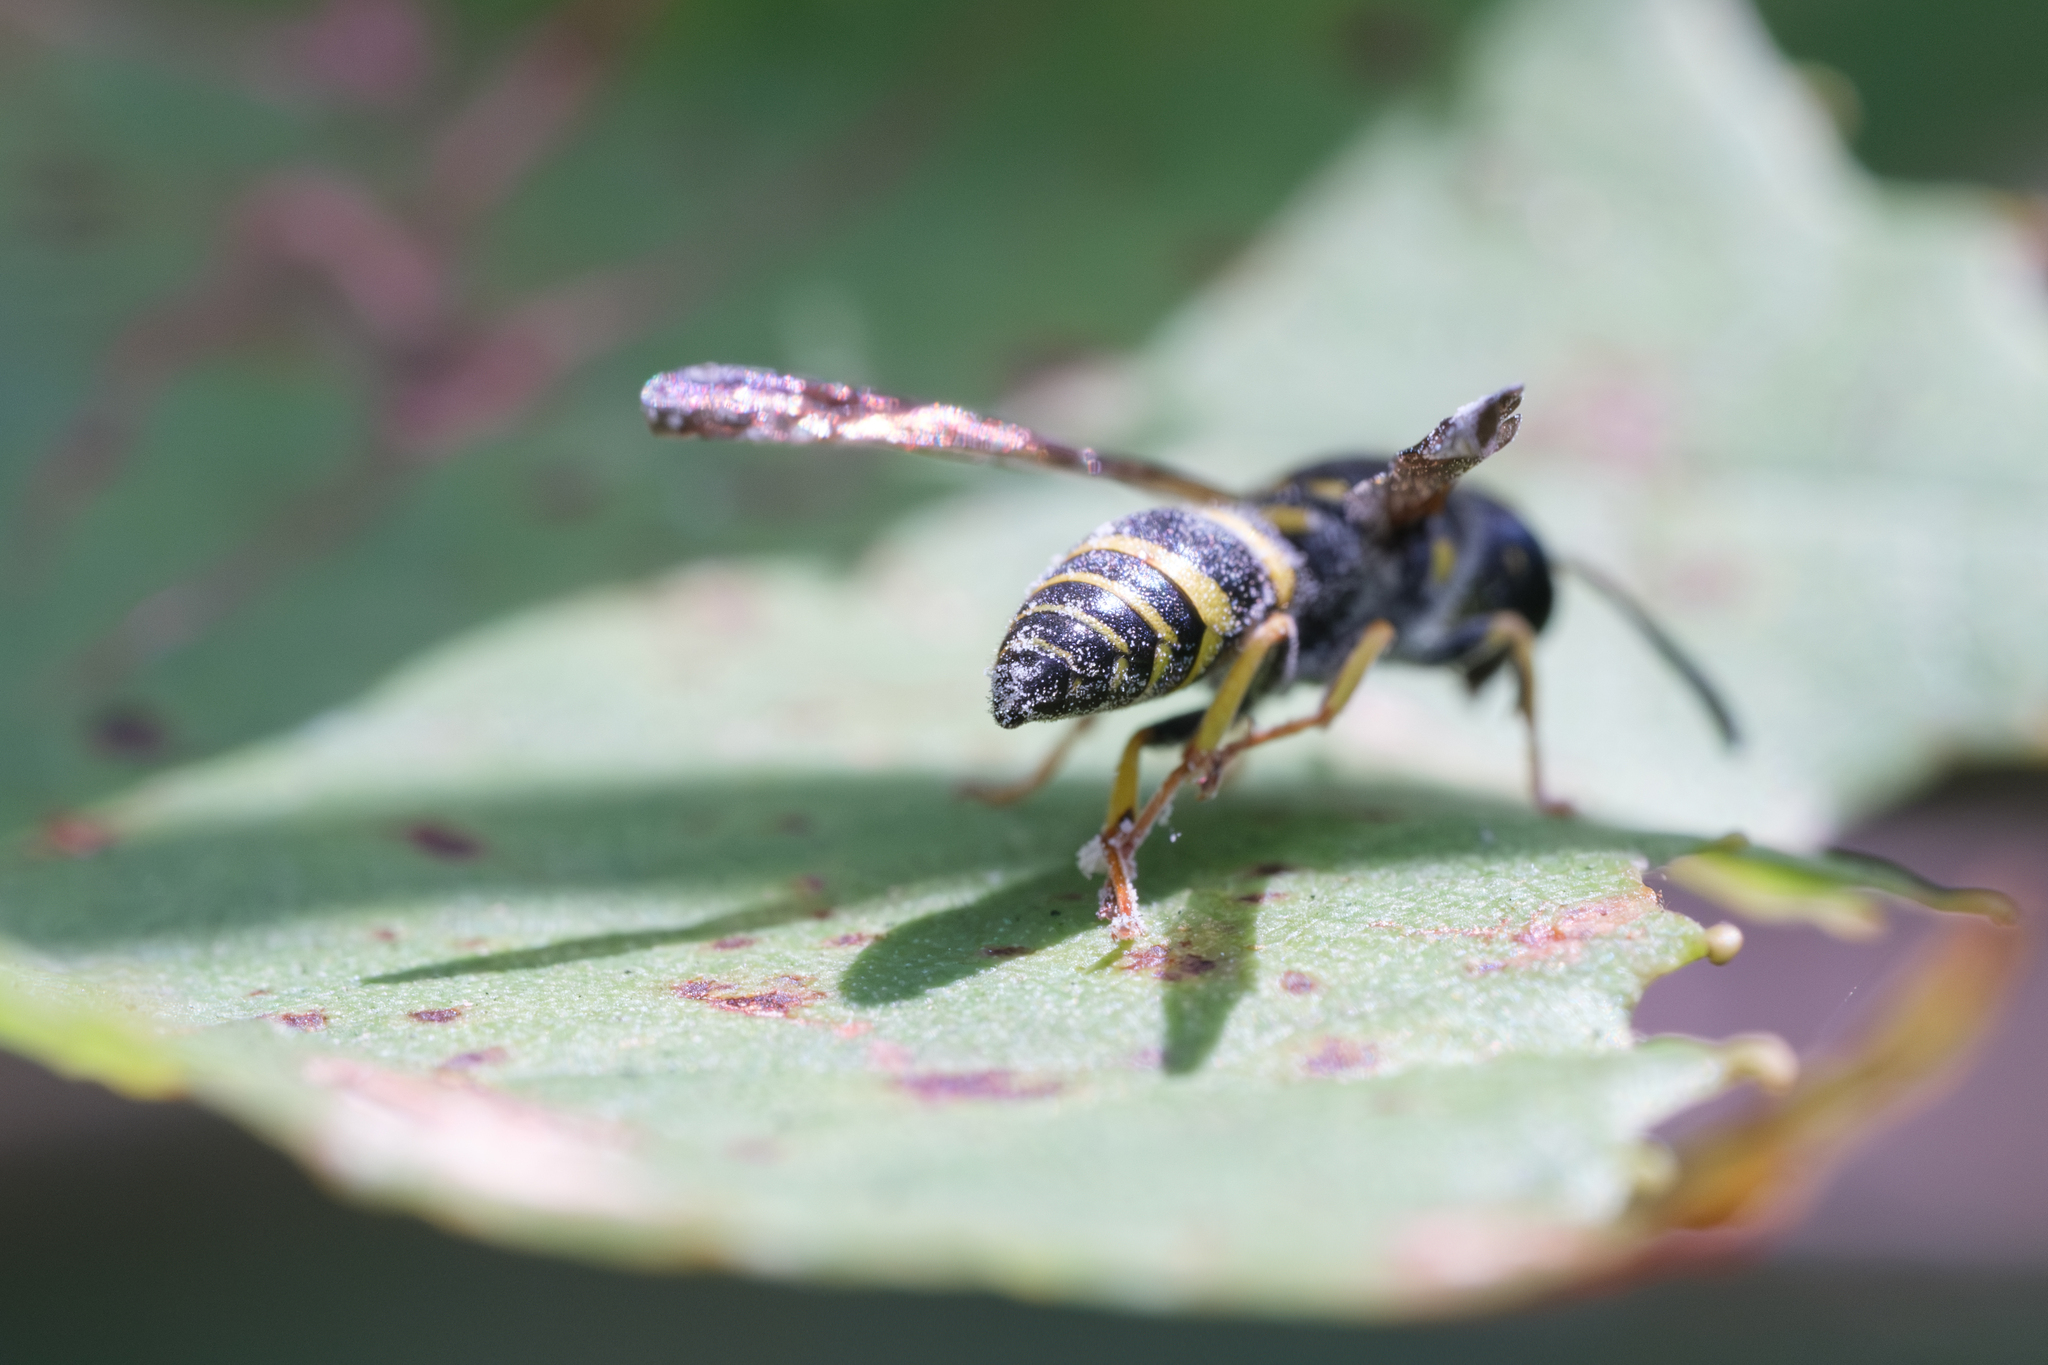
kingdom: Animalia
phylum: Arthropoda
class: Insecta
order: Hymenoptera
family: Vespidae
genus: Ancistrocerus
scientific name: Ancistrocerus adiabatus
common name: Bramble mason wasp
